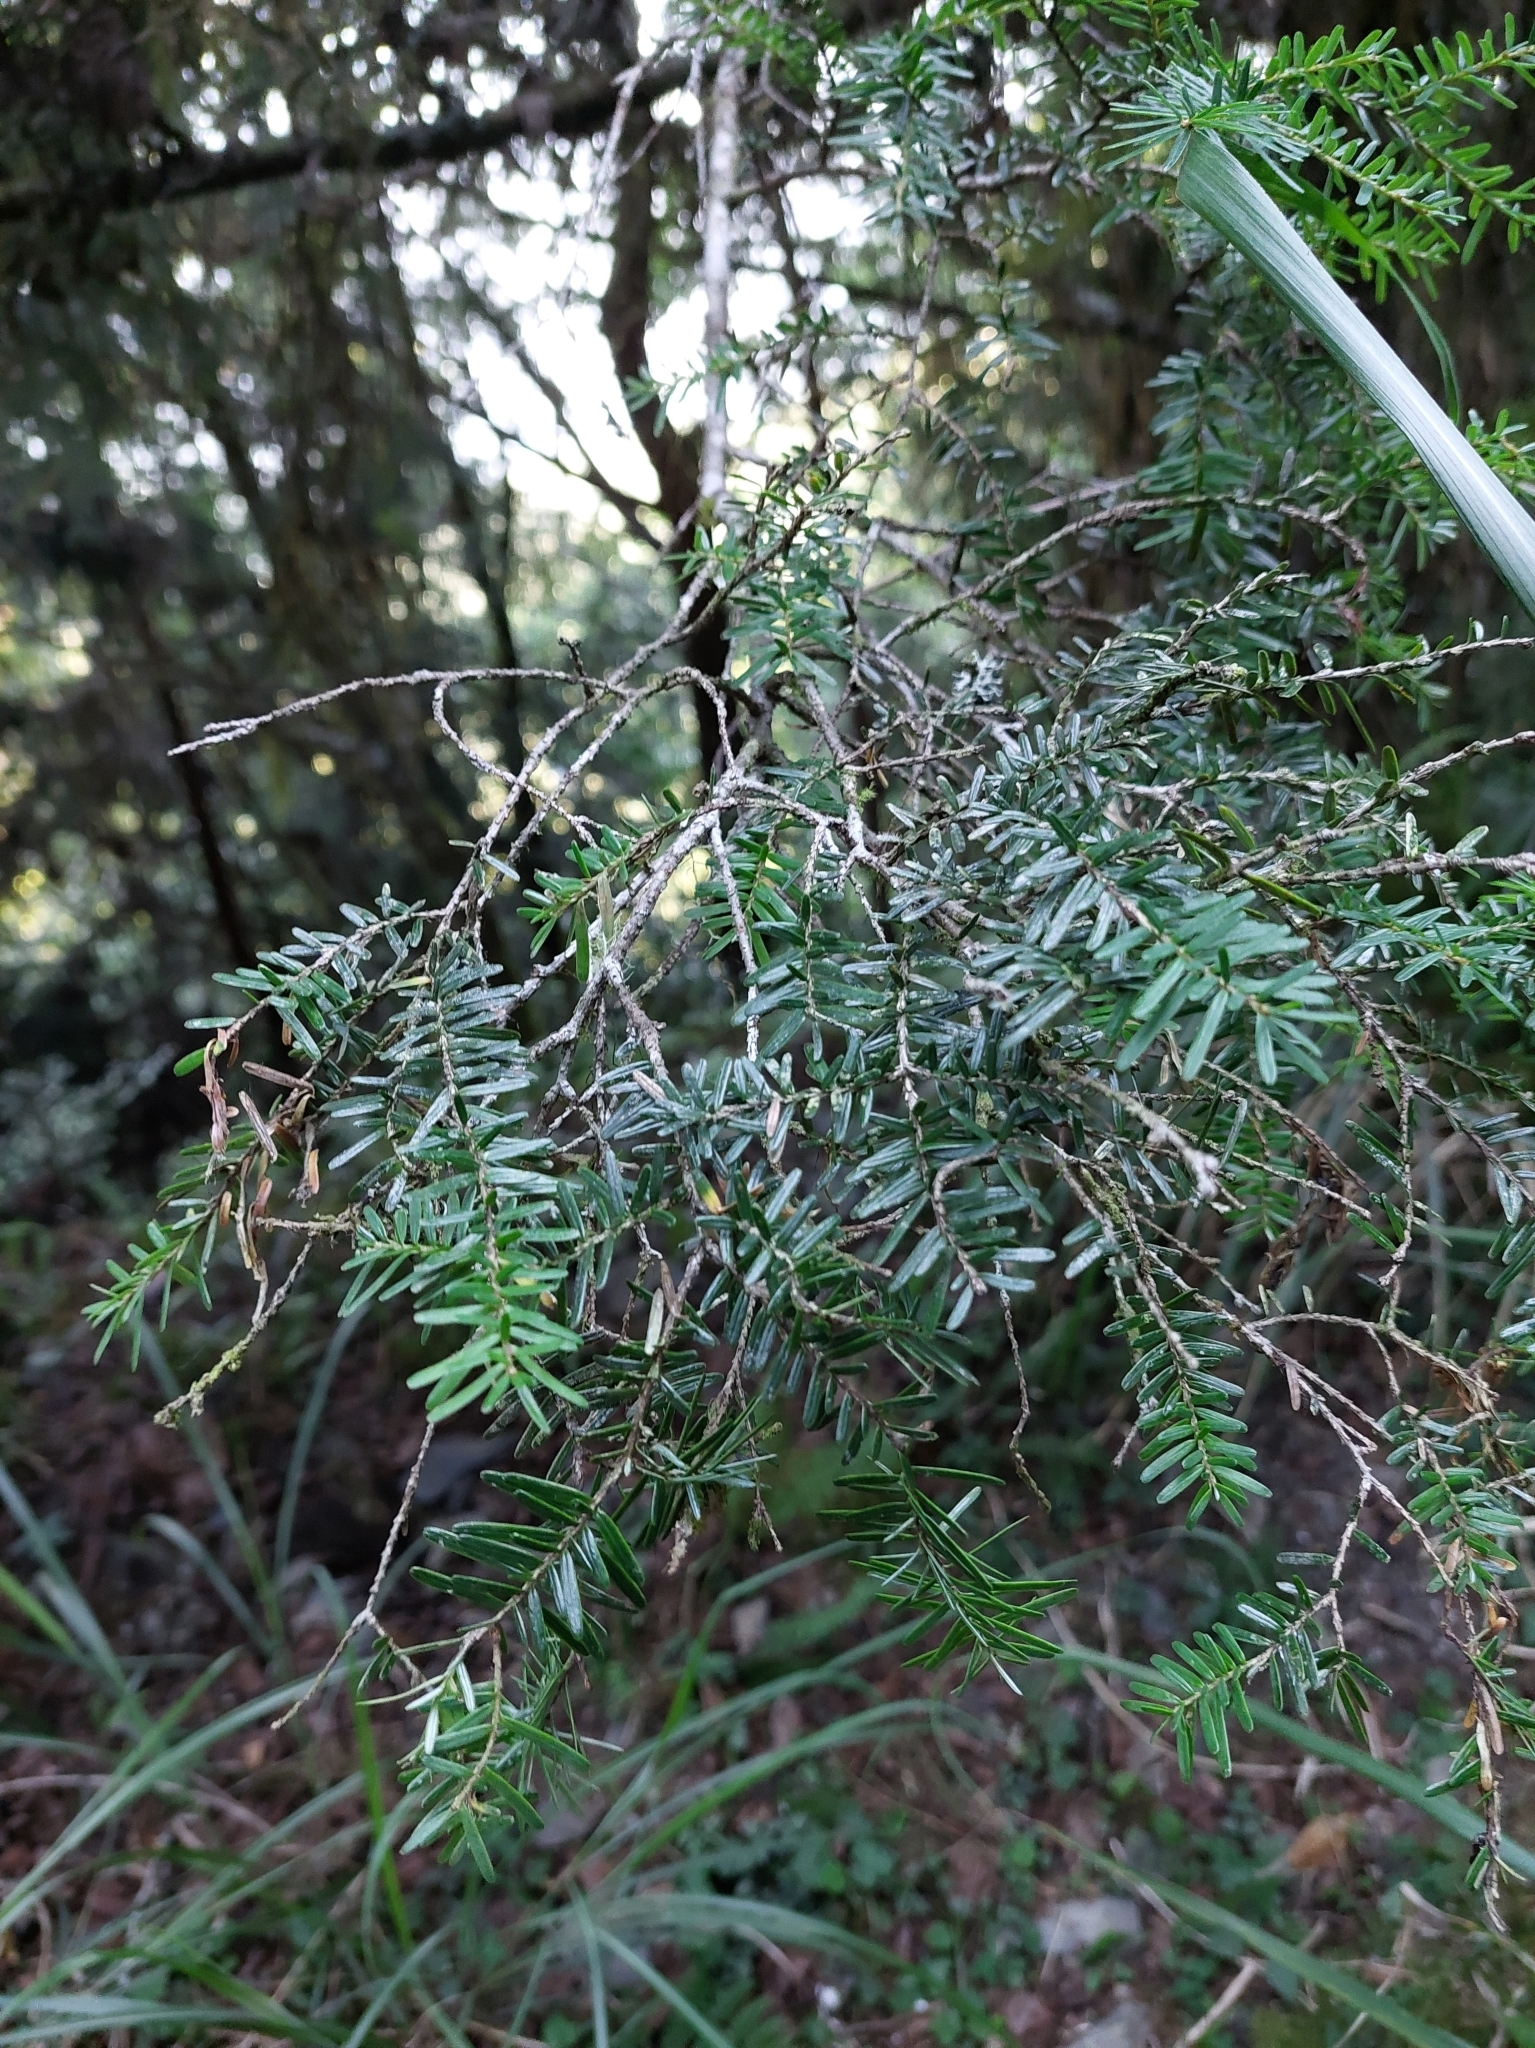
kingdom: Plantae
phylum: Tracheophyta
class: Pinopsida
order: Pinales
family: Pinaceae
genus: Tsuga
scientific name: Tsuga chinensis
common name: Chinese hemlock
